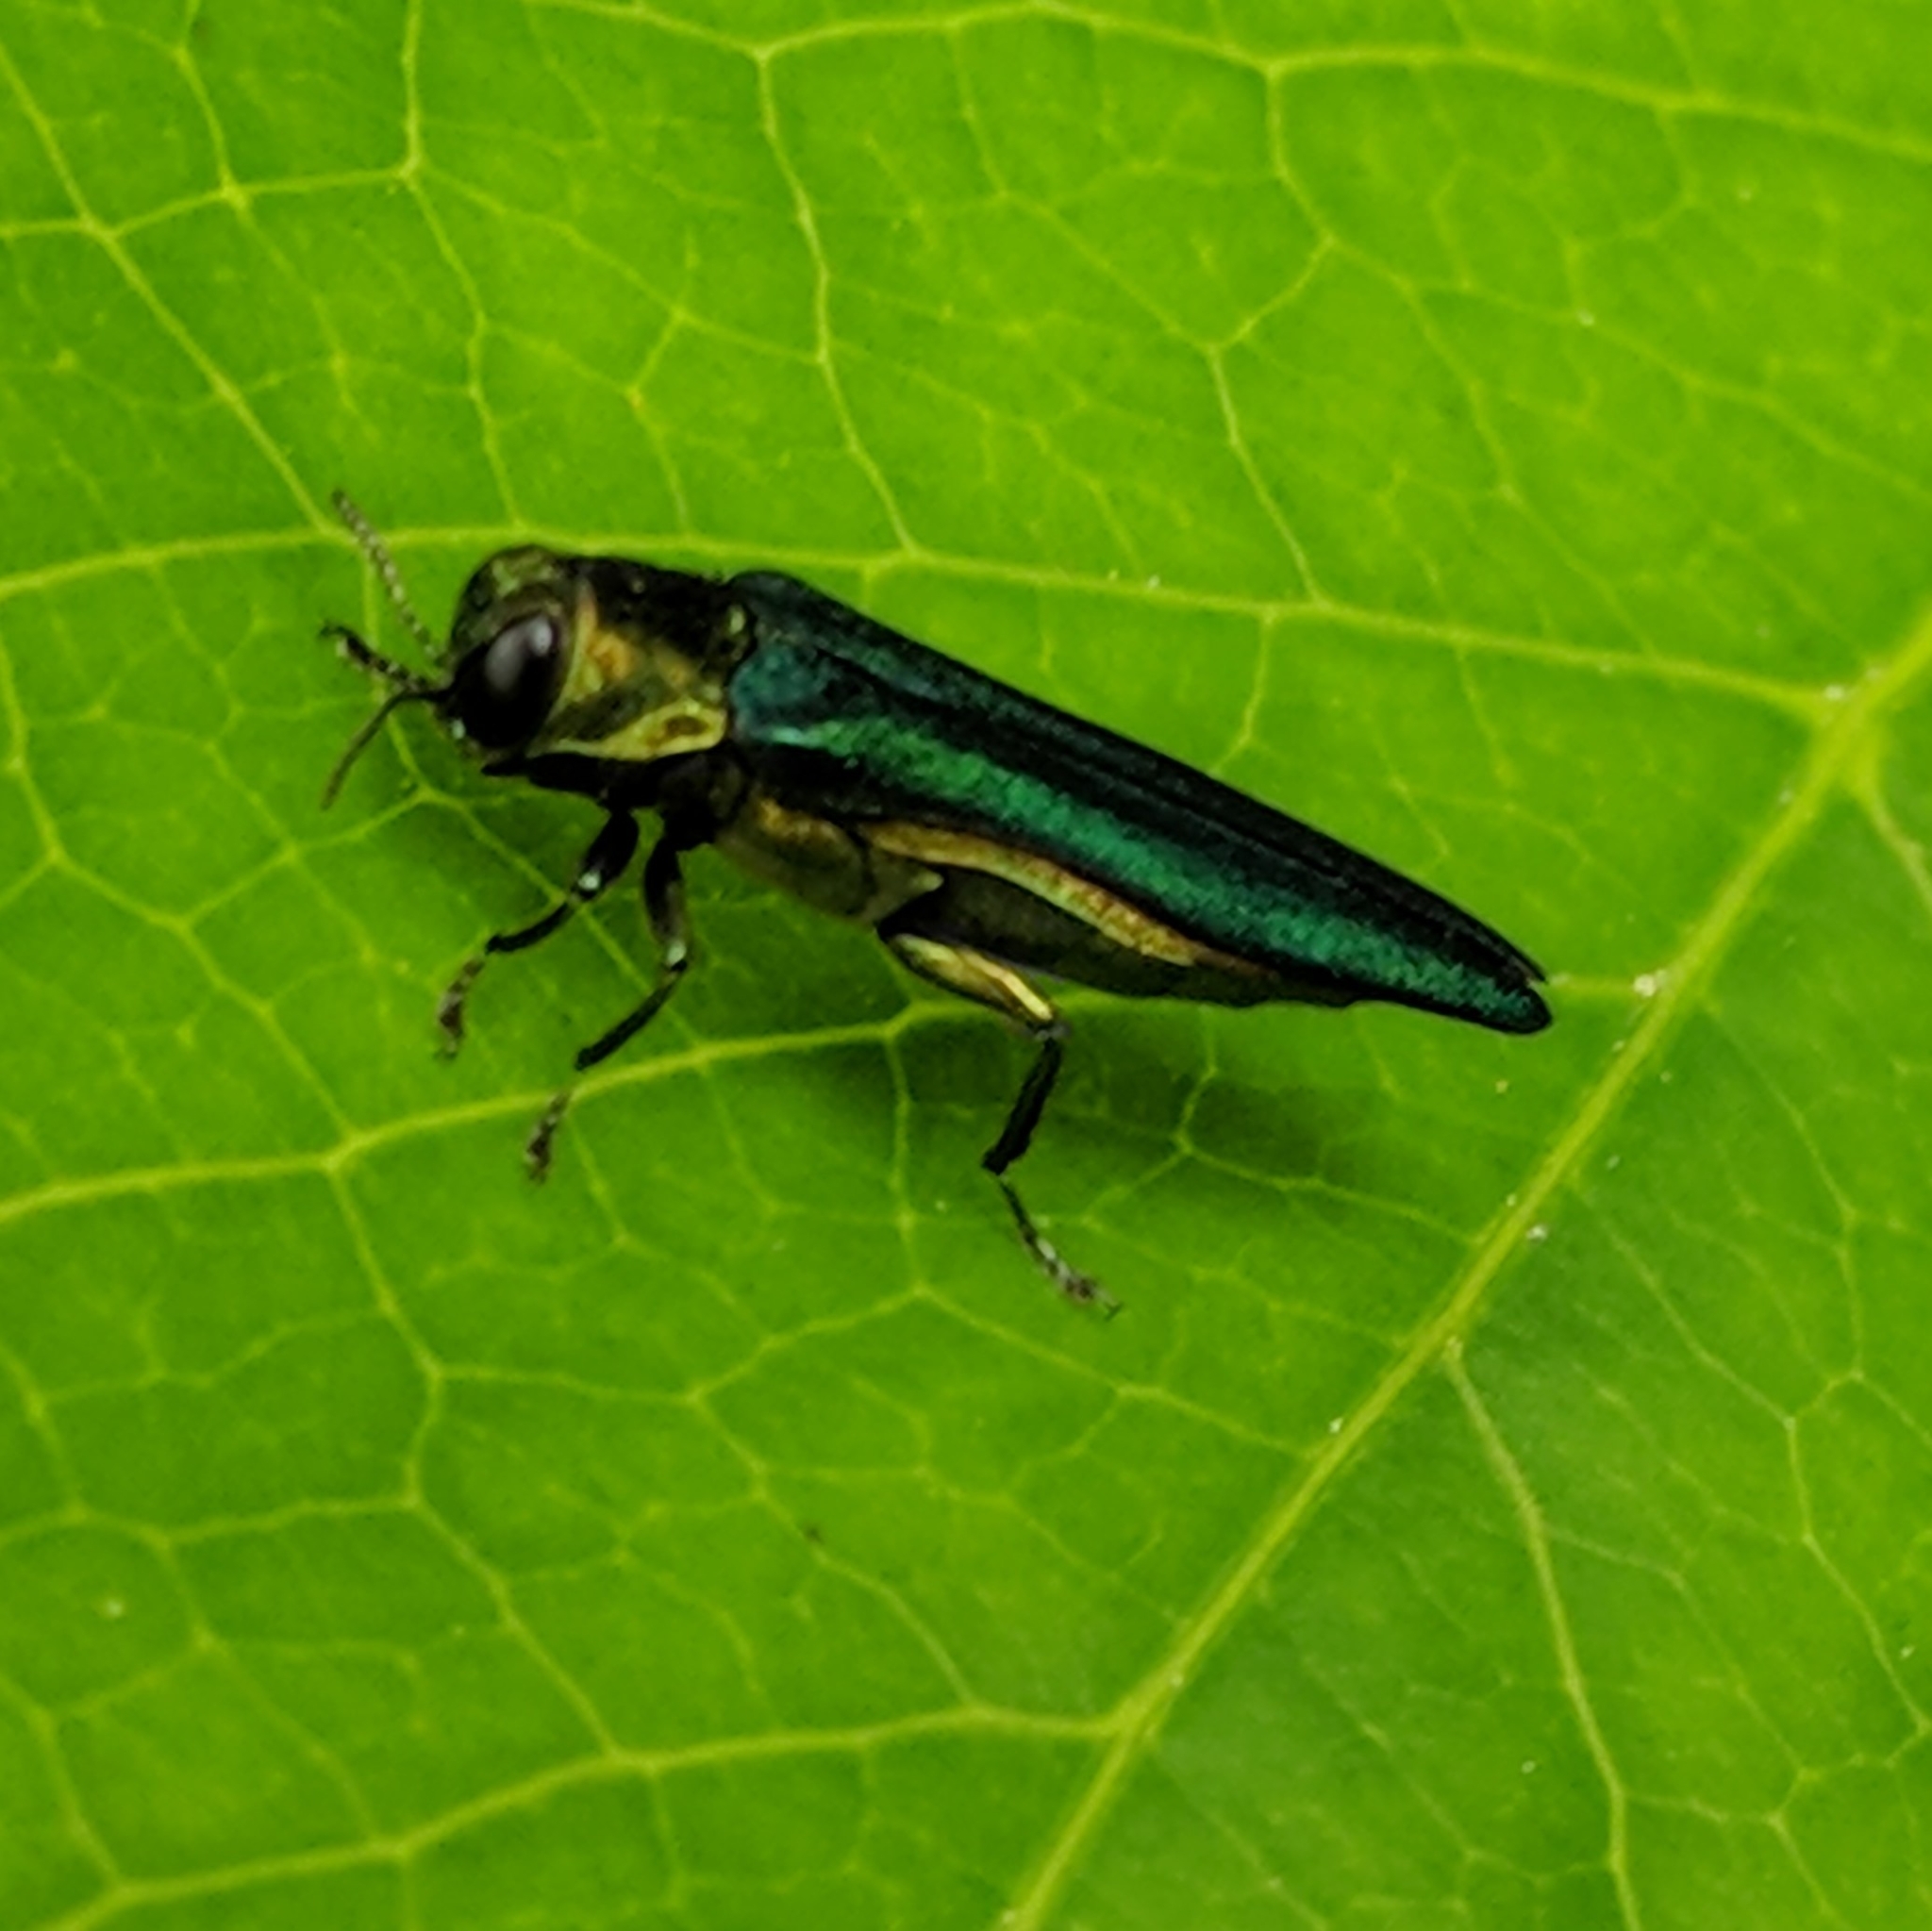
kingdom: Animalia
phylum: Arthropoda
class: Insecta
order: Coleoptera
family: Buprestidae
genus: Agrilus
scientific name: Agrilus planipennis
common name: Emerald ash borer
